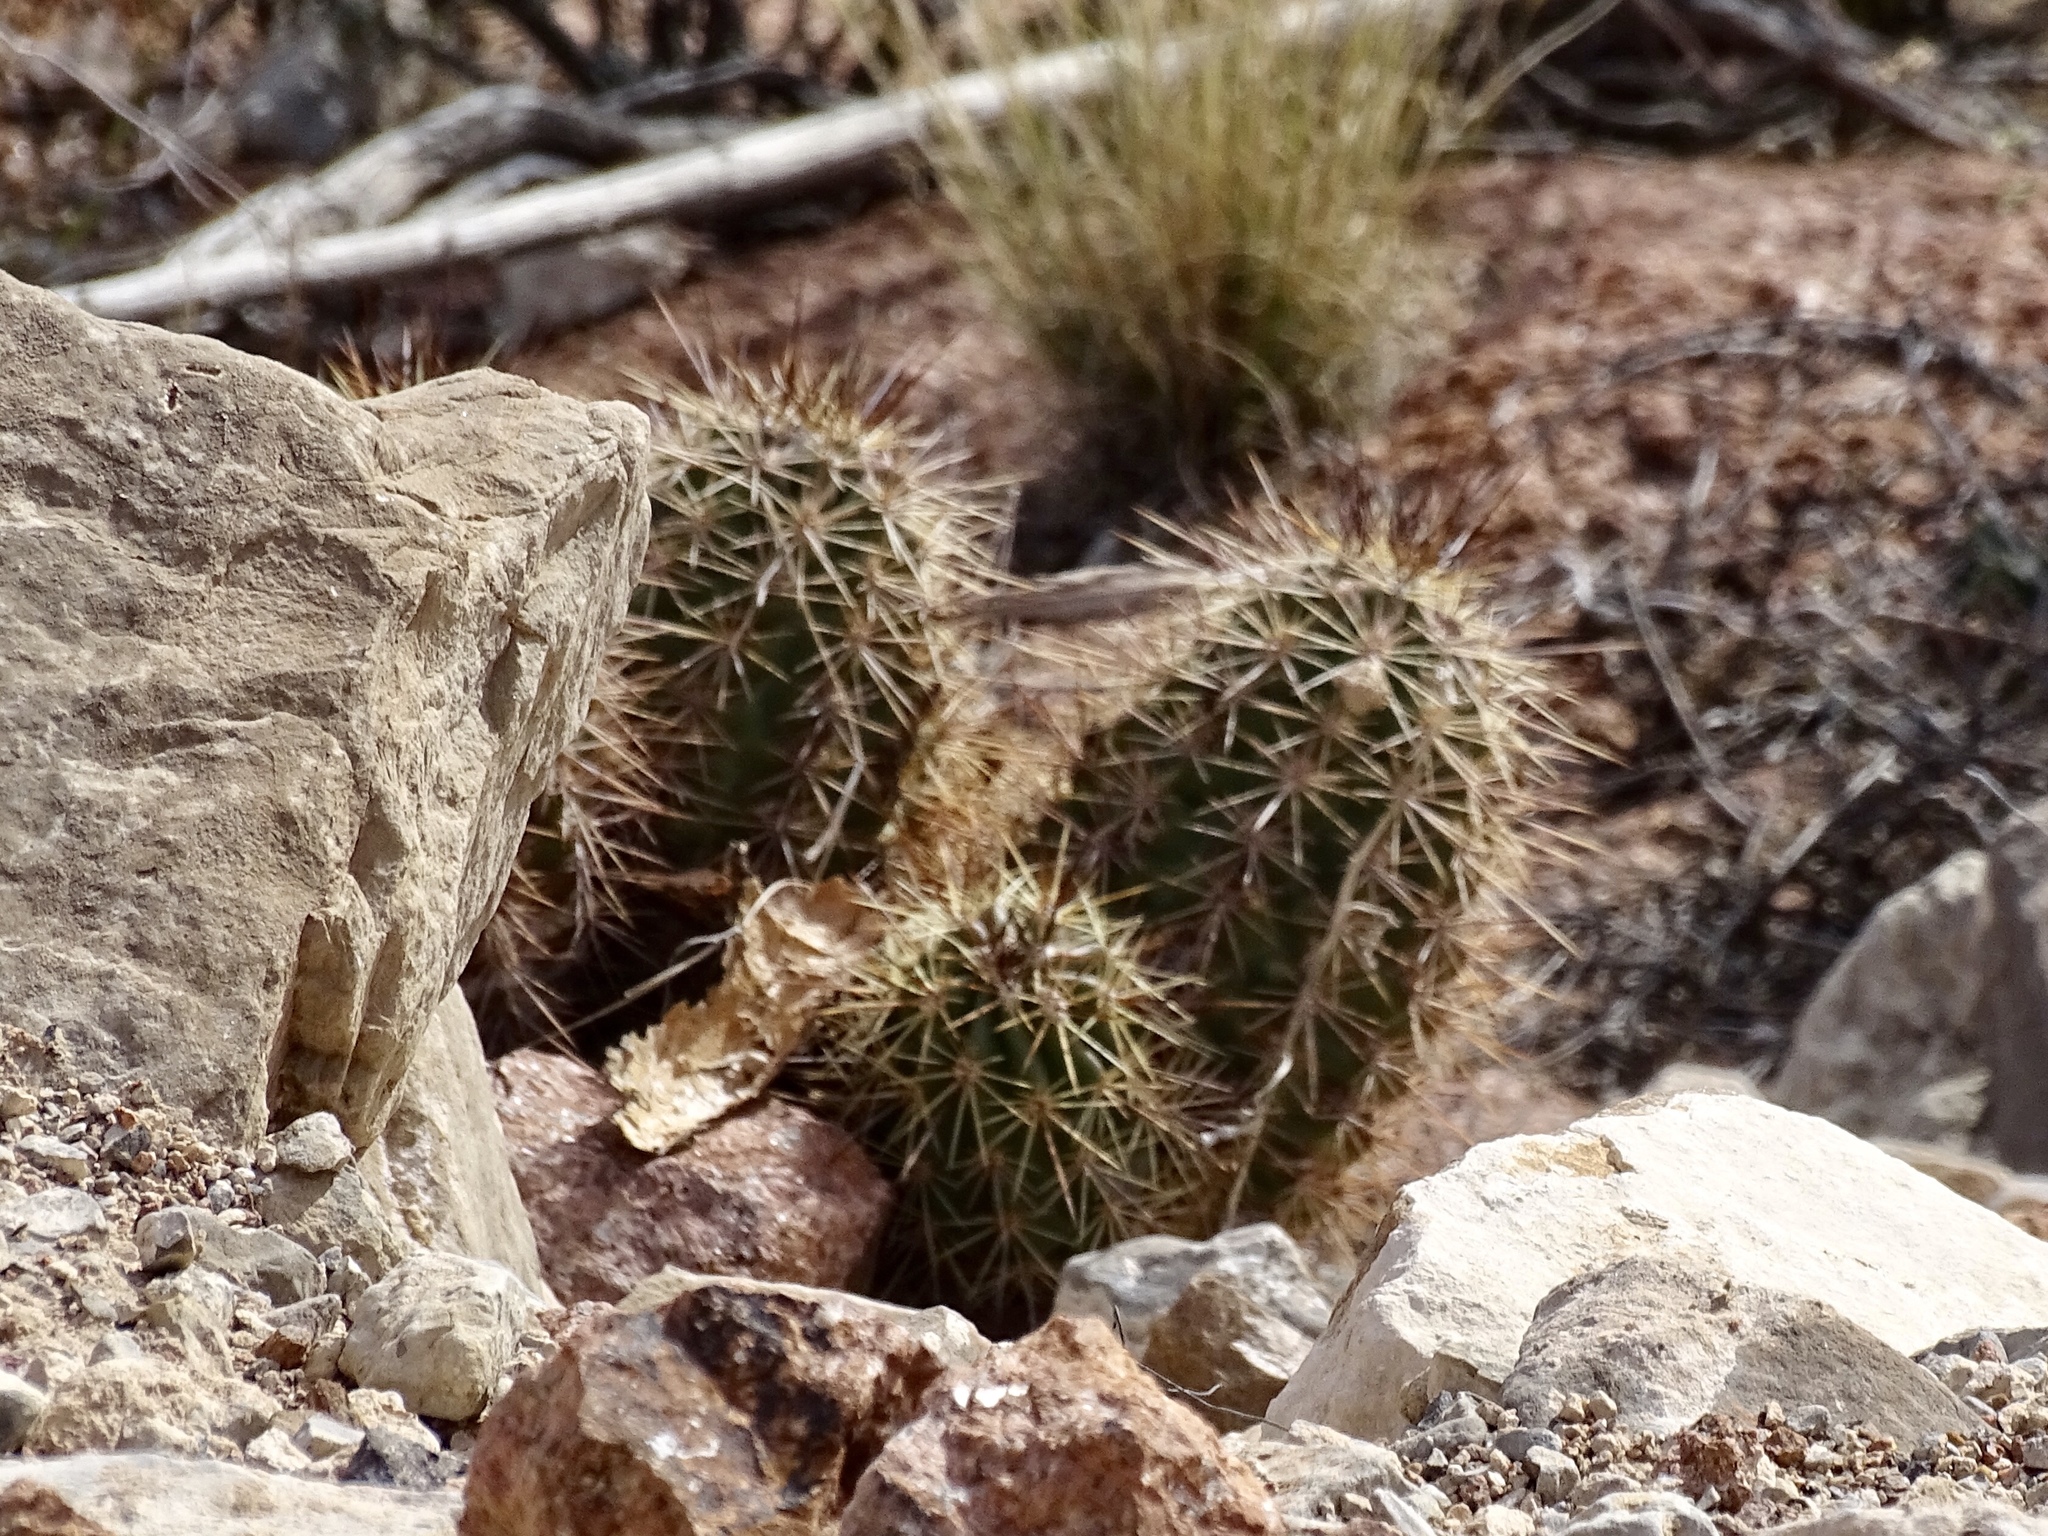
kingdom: Plantae
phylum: Tracheophyta
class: Magnoliopsida
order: Caryophyllales
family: Cactaceae
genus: Echinocereus
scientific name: Echinocereus coccineus
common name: Scarlet hedgehog cactus
